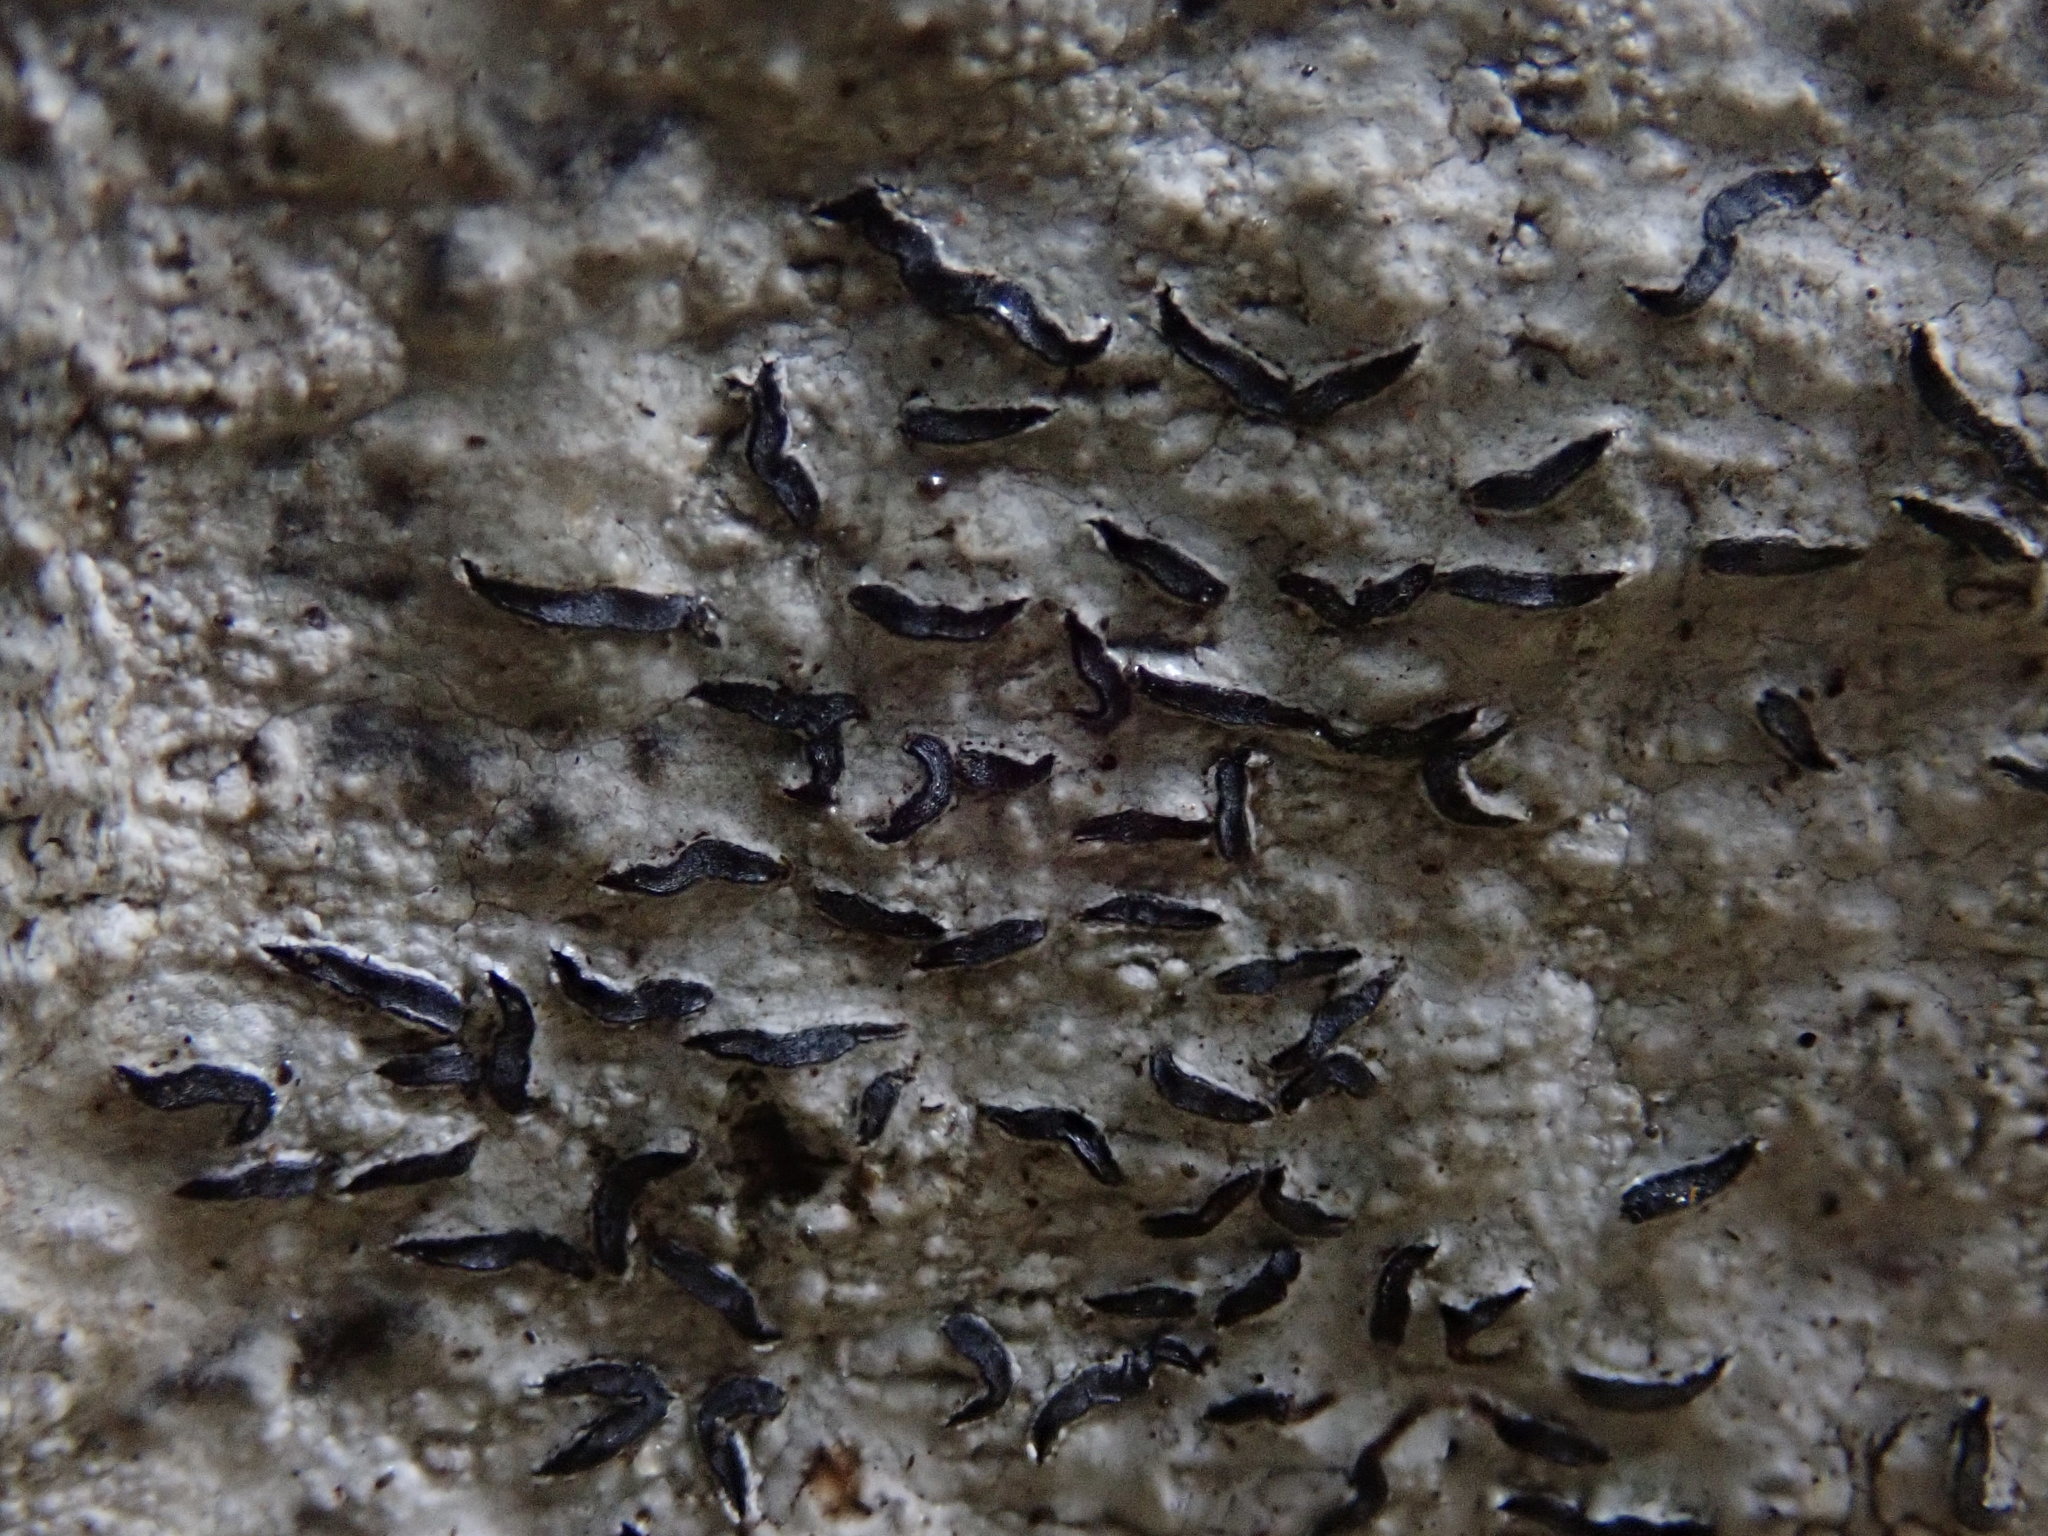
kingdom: Fungi
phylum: Ascomycota
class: Lecanoromycetes
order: Ostropales
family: Graphidaceae
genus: Graphis
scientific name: Graphis scripta
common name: Script lichen
